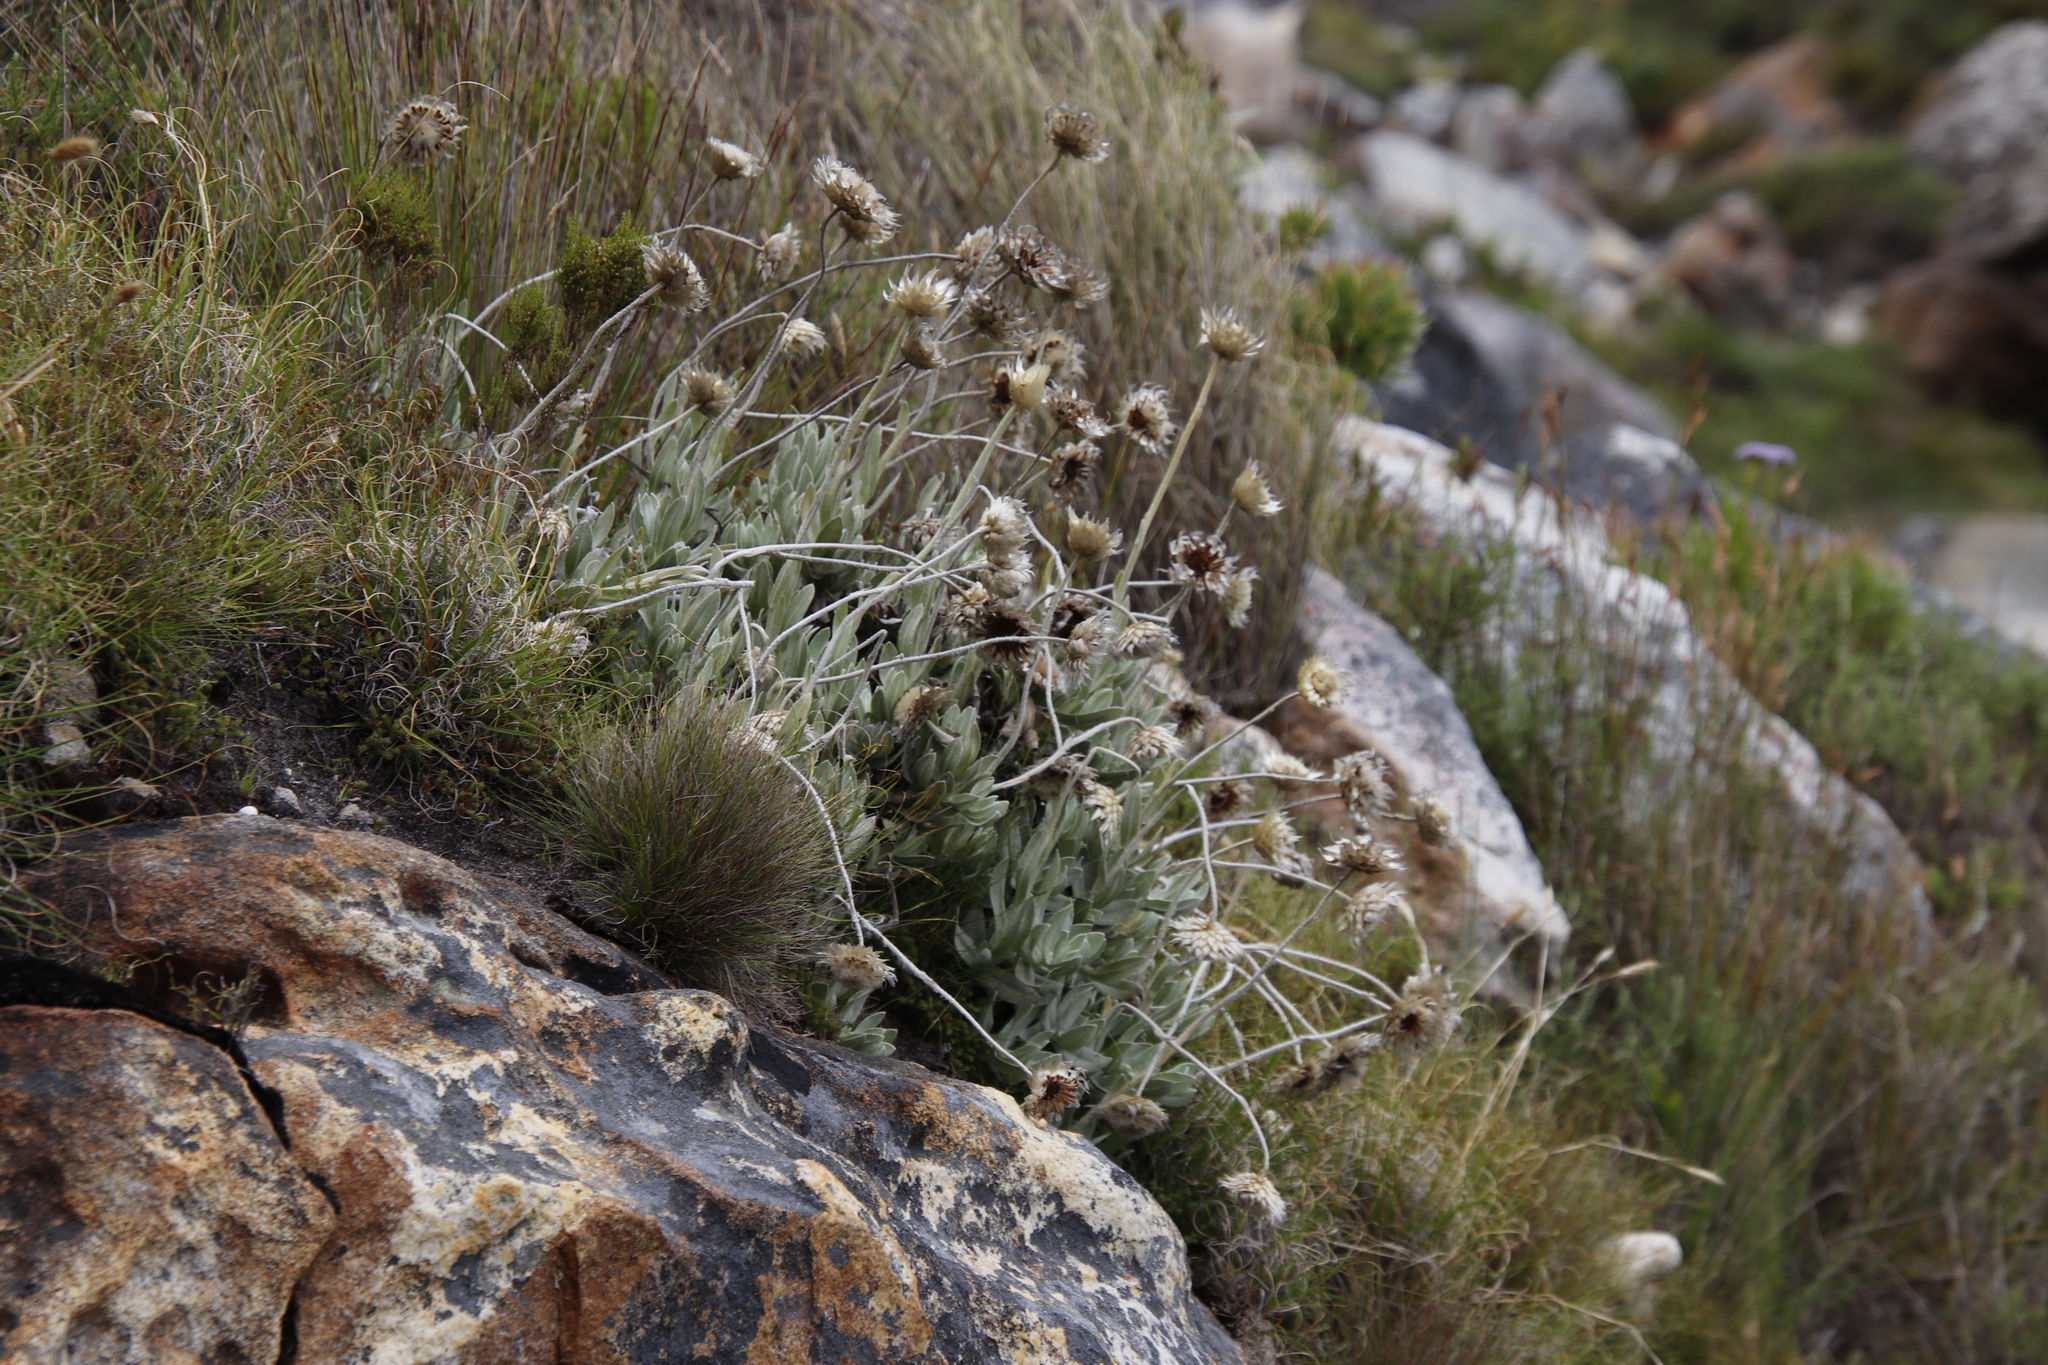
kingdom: Plantae
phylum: Tracheophyta
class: Magnoliopsida
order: Asterales
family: Asteraceae
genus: Syncarpha
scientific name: Syncarpha speciosissima
